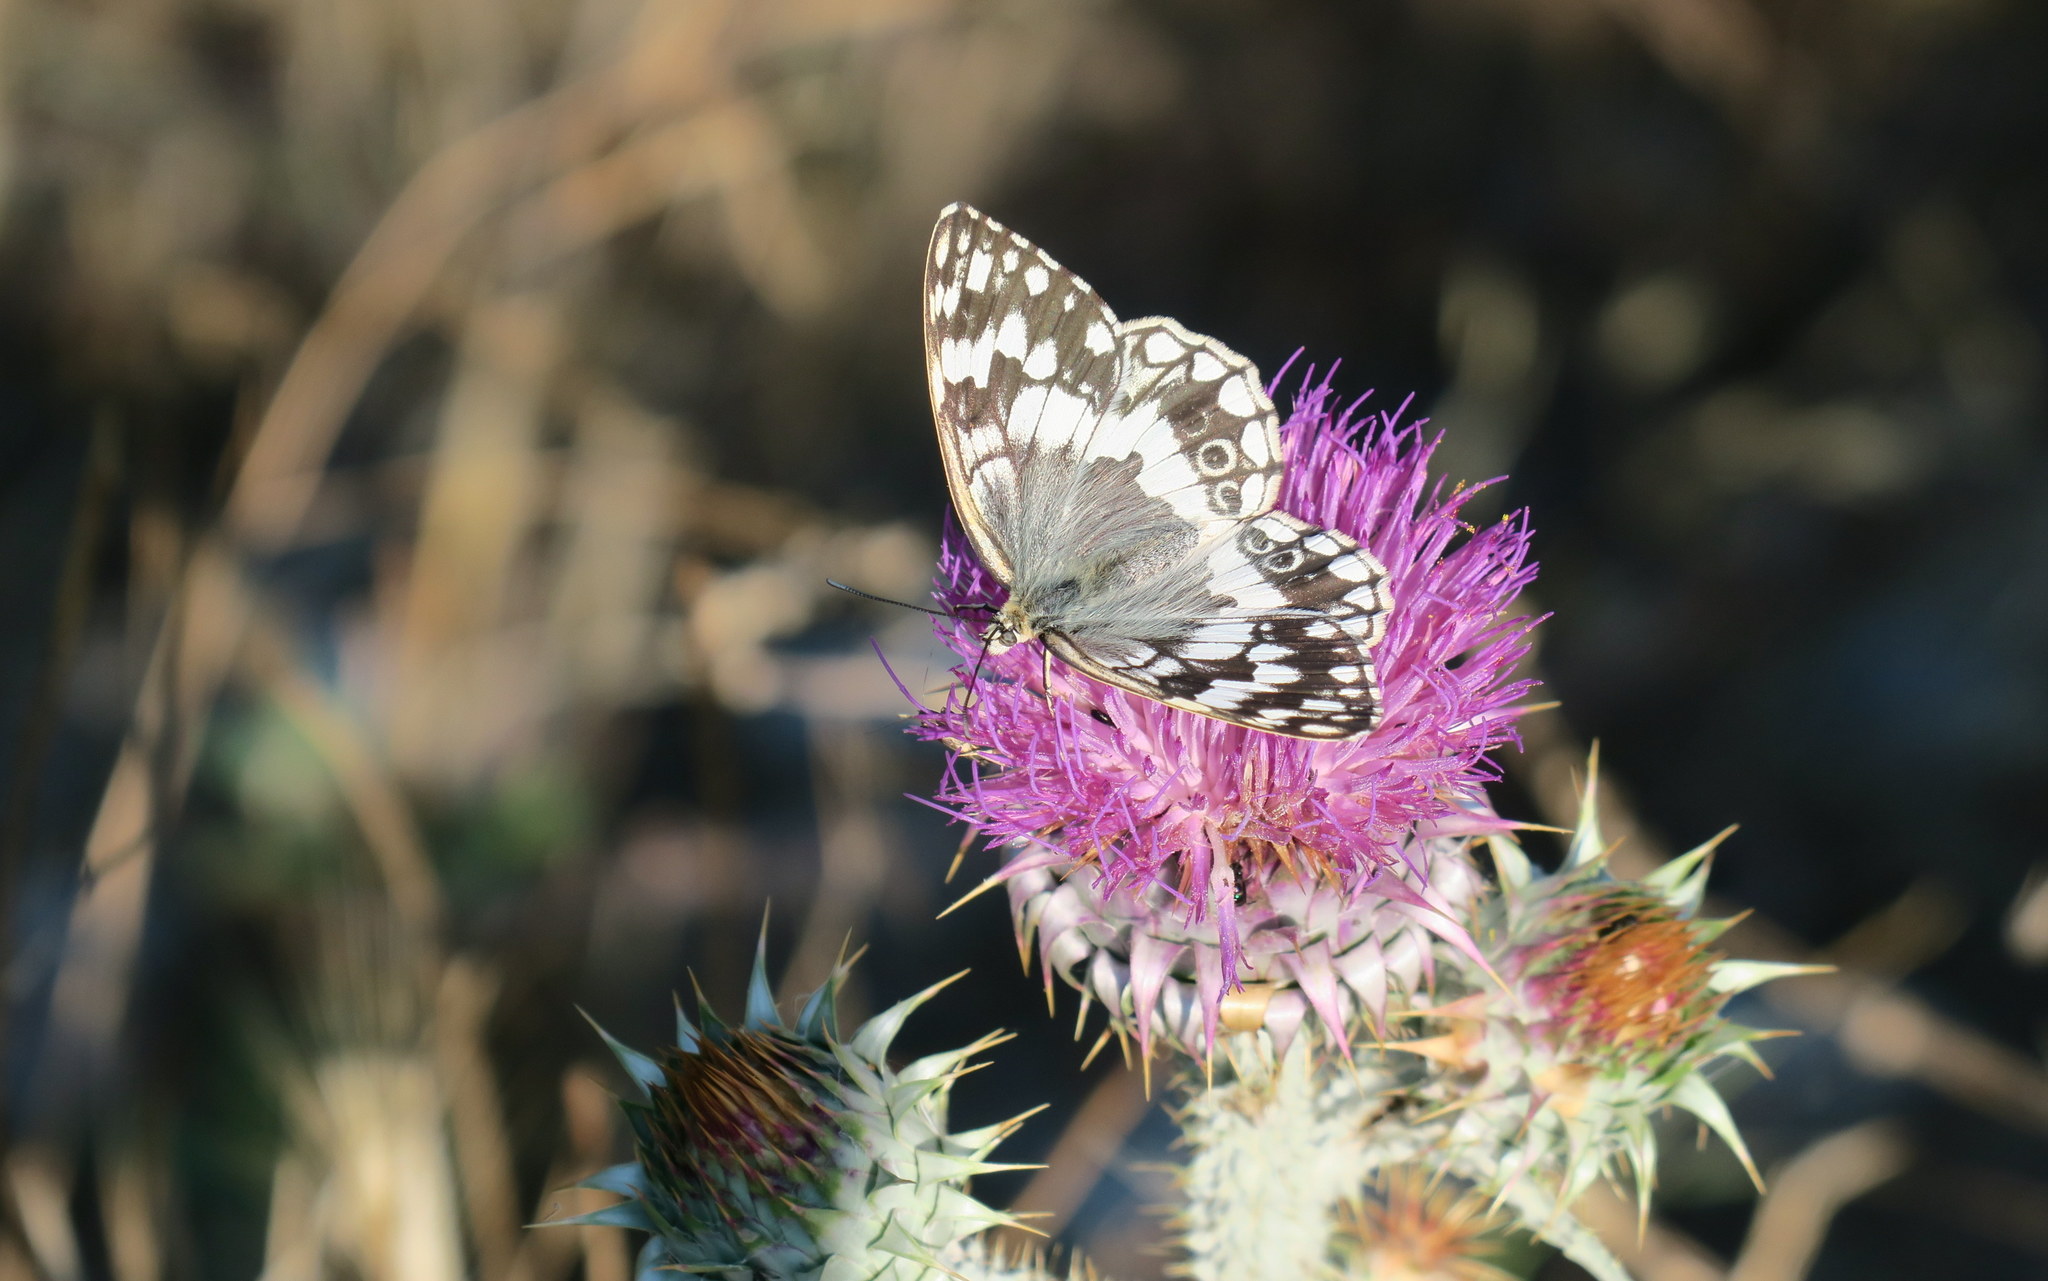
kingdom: Animalia
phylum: Arthropoda
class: Insecta
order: Lepidoptera
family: Nymphalidae
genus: Melanargia
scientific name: Melanargia larissa
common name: Balkan marbled white
